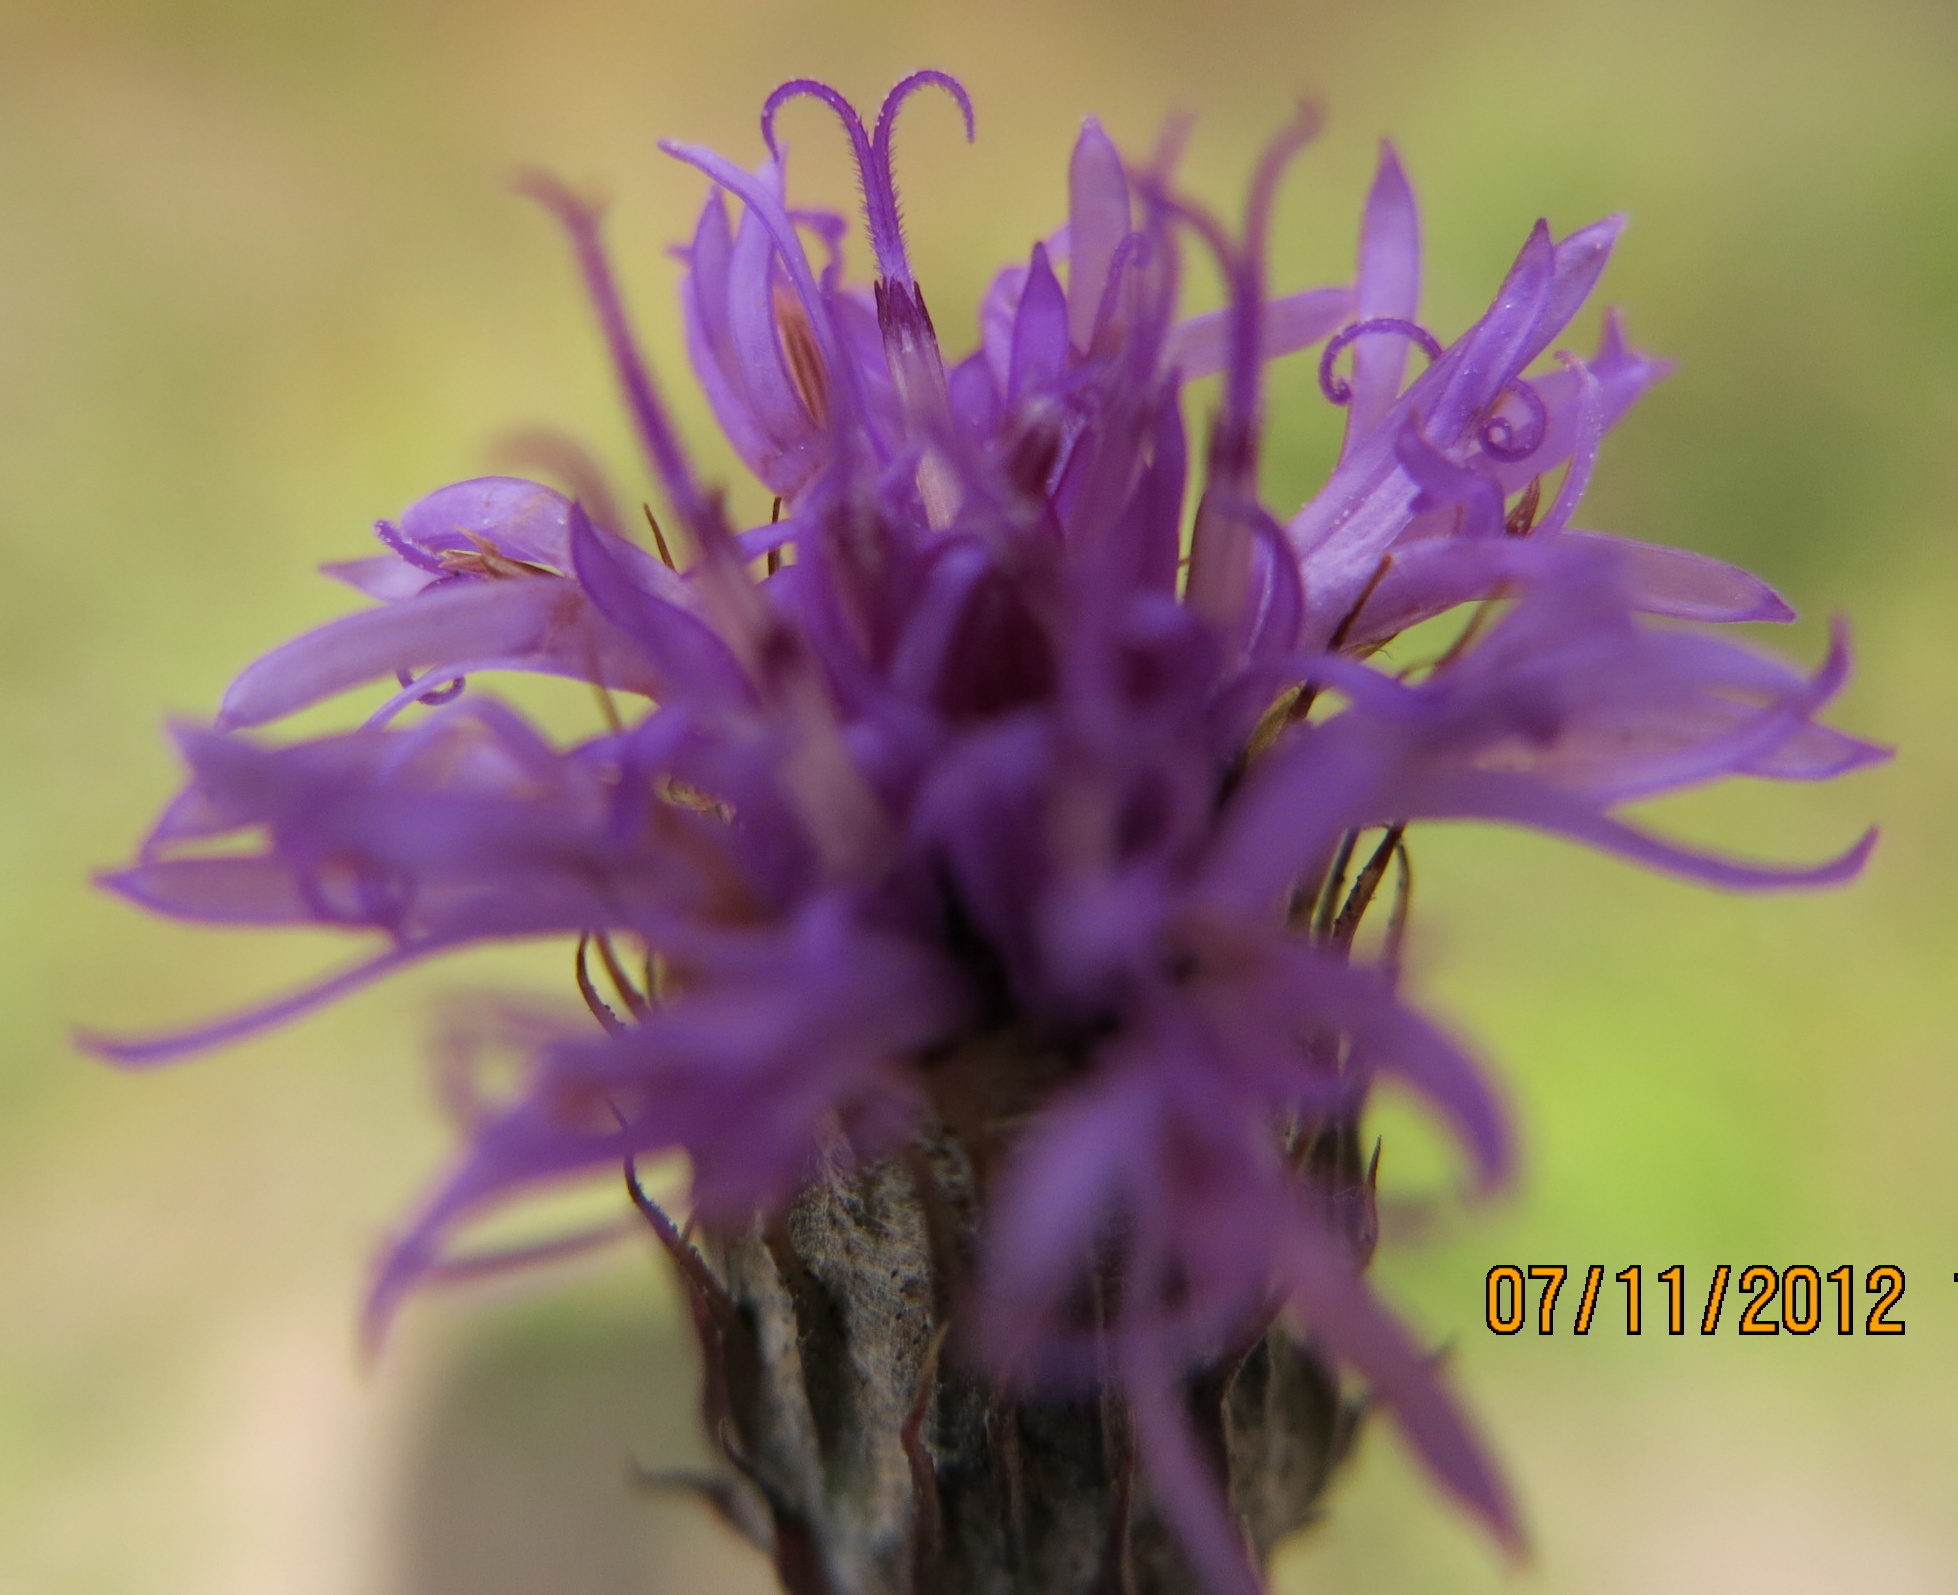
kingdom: Plantae
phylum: Tracheophyta
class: Magnoliopsida
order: Asterales
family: Asteraceae
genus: Crystallopollen
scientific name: Crystallopollen angustifolium
